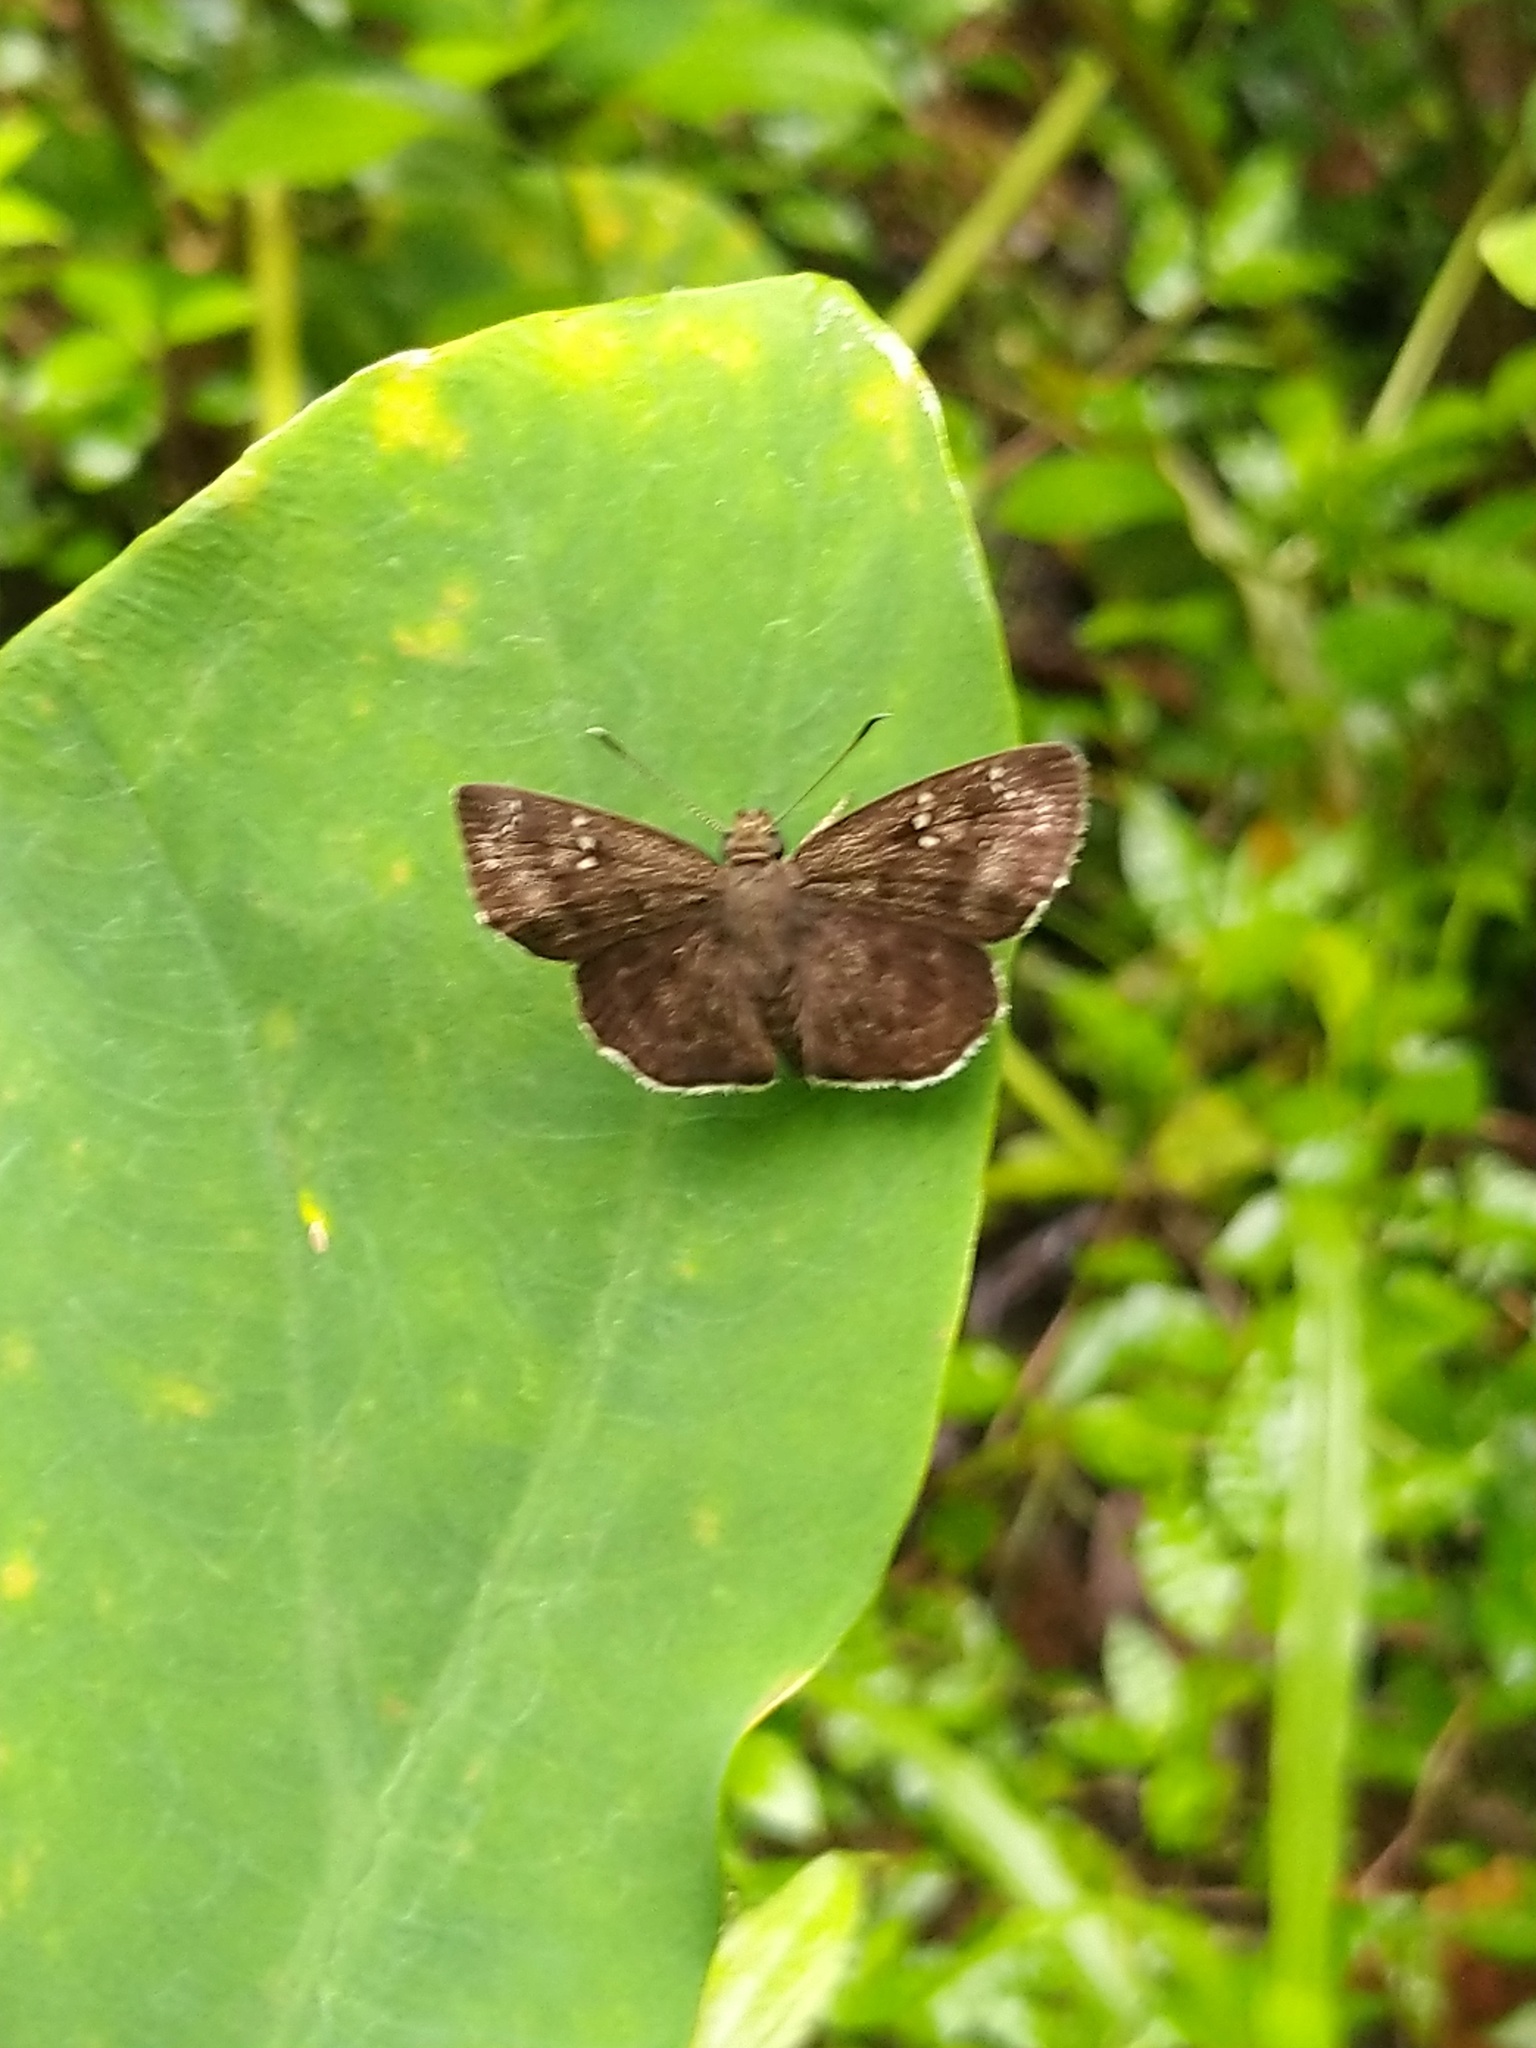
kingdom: Animalia
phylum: Arthropoda
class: Insecta
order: Lepidoptera
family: Hesperiidae
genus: Sarangesa
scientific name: Sarangesa dasahara
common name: Common small flat
